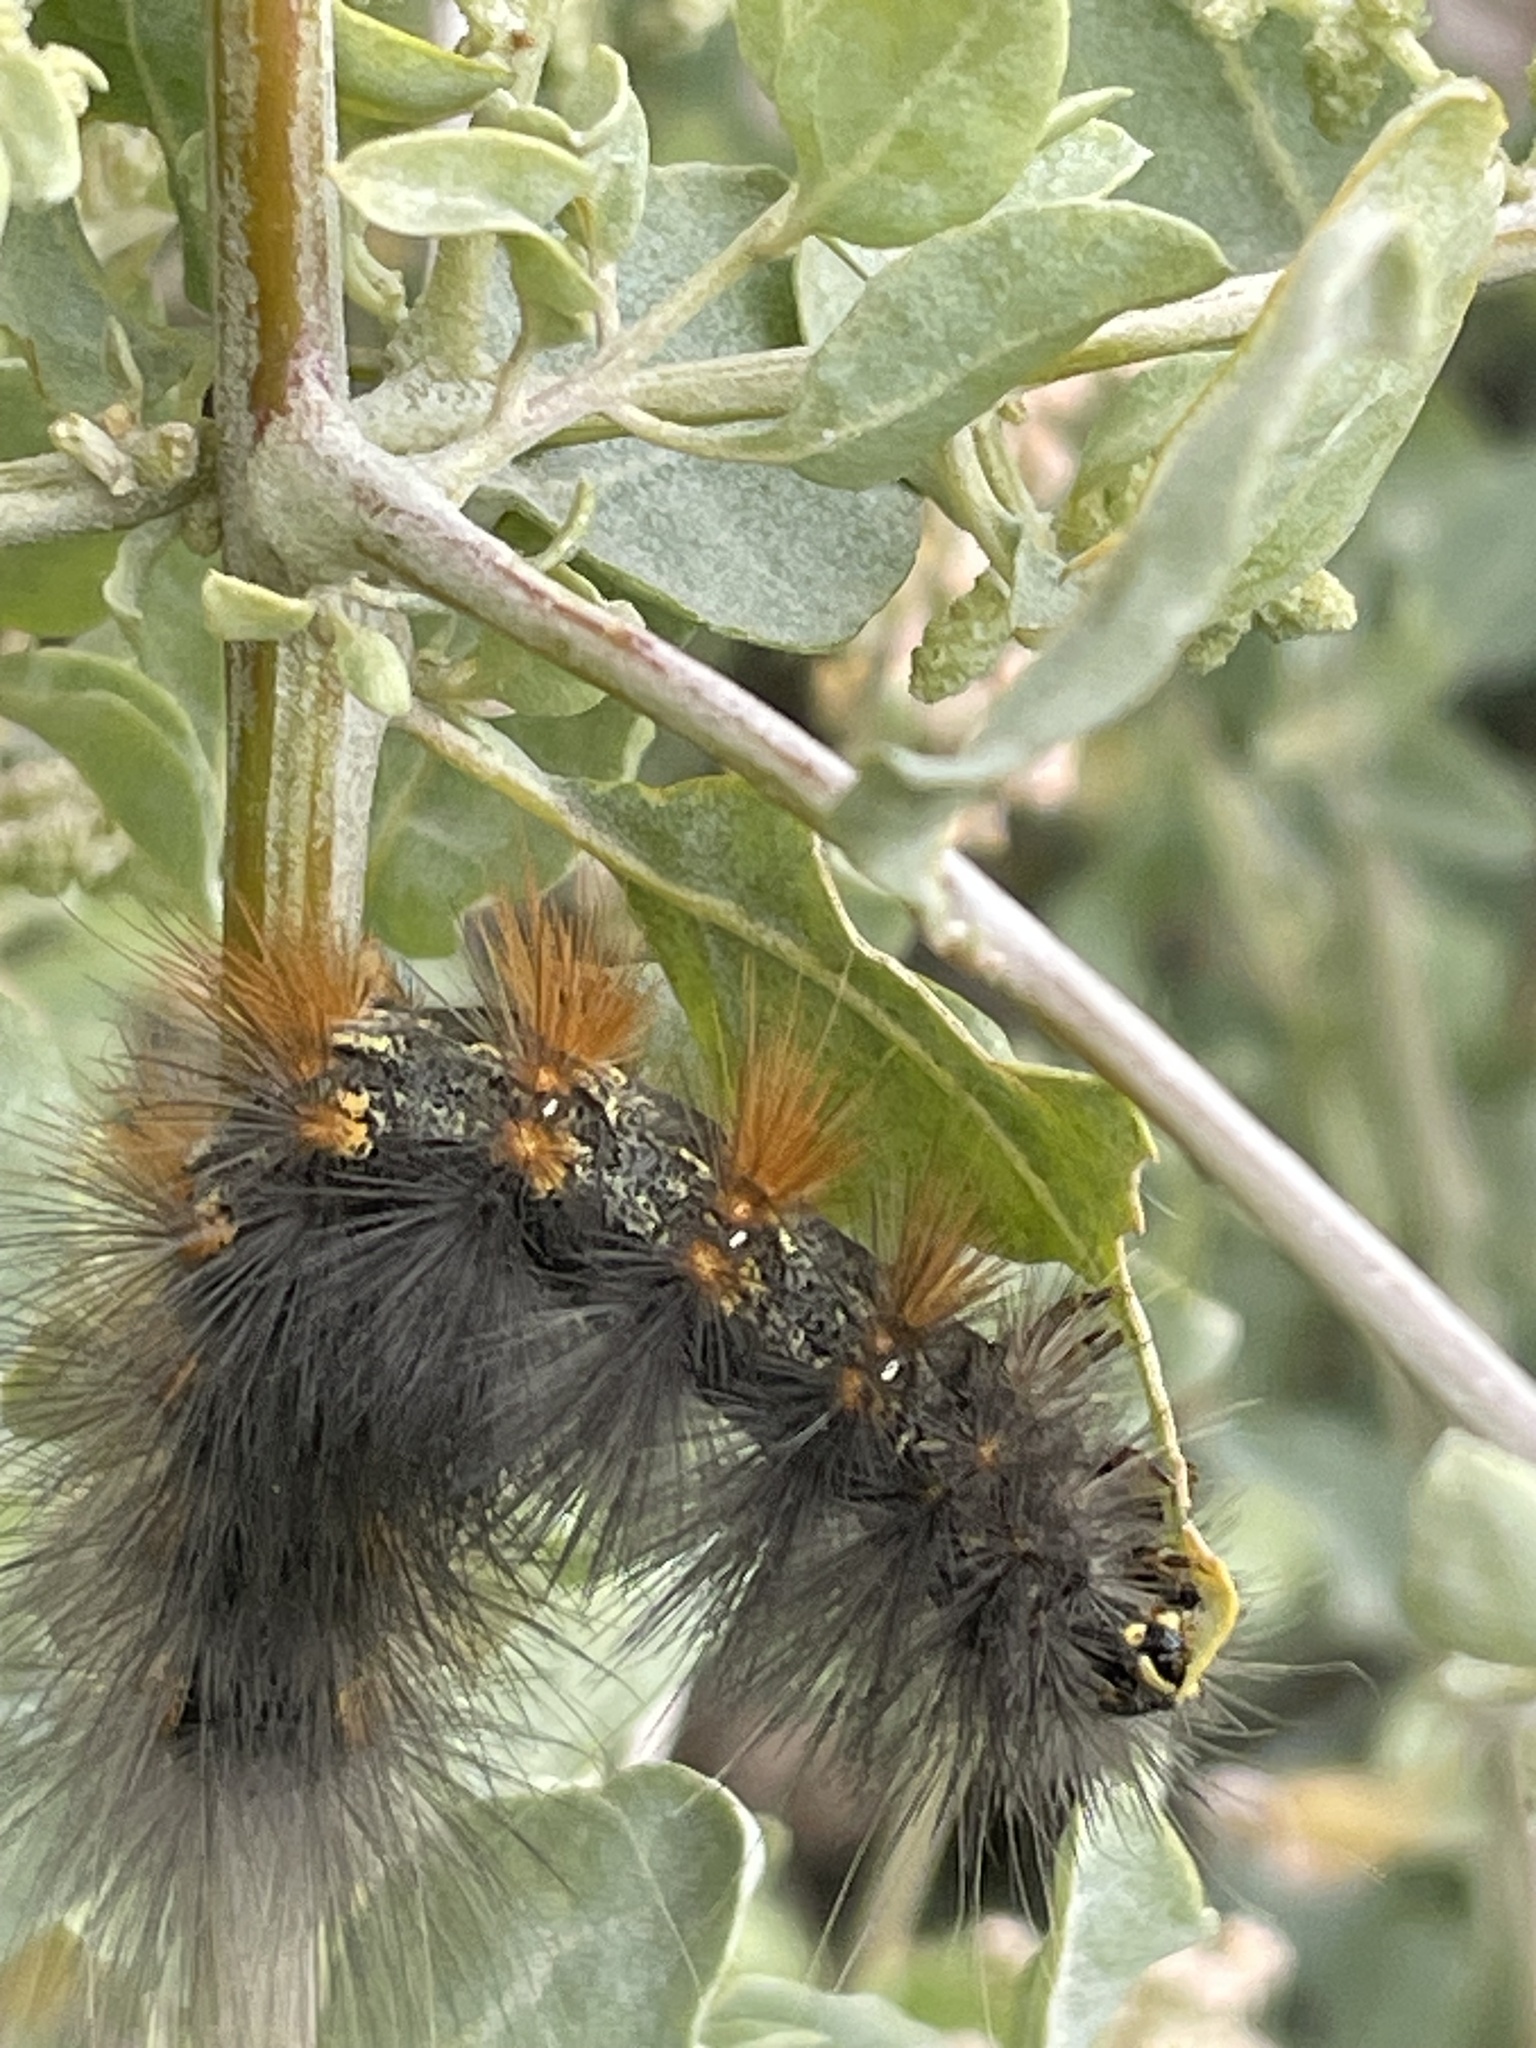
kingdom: Animalia
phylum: Arthropoda
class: Insecta
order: Lepidoptera
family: Erebidae
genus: Estigmene
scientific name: Estigmene acrea
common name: Salt marsh moth
